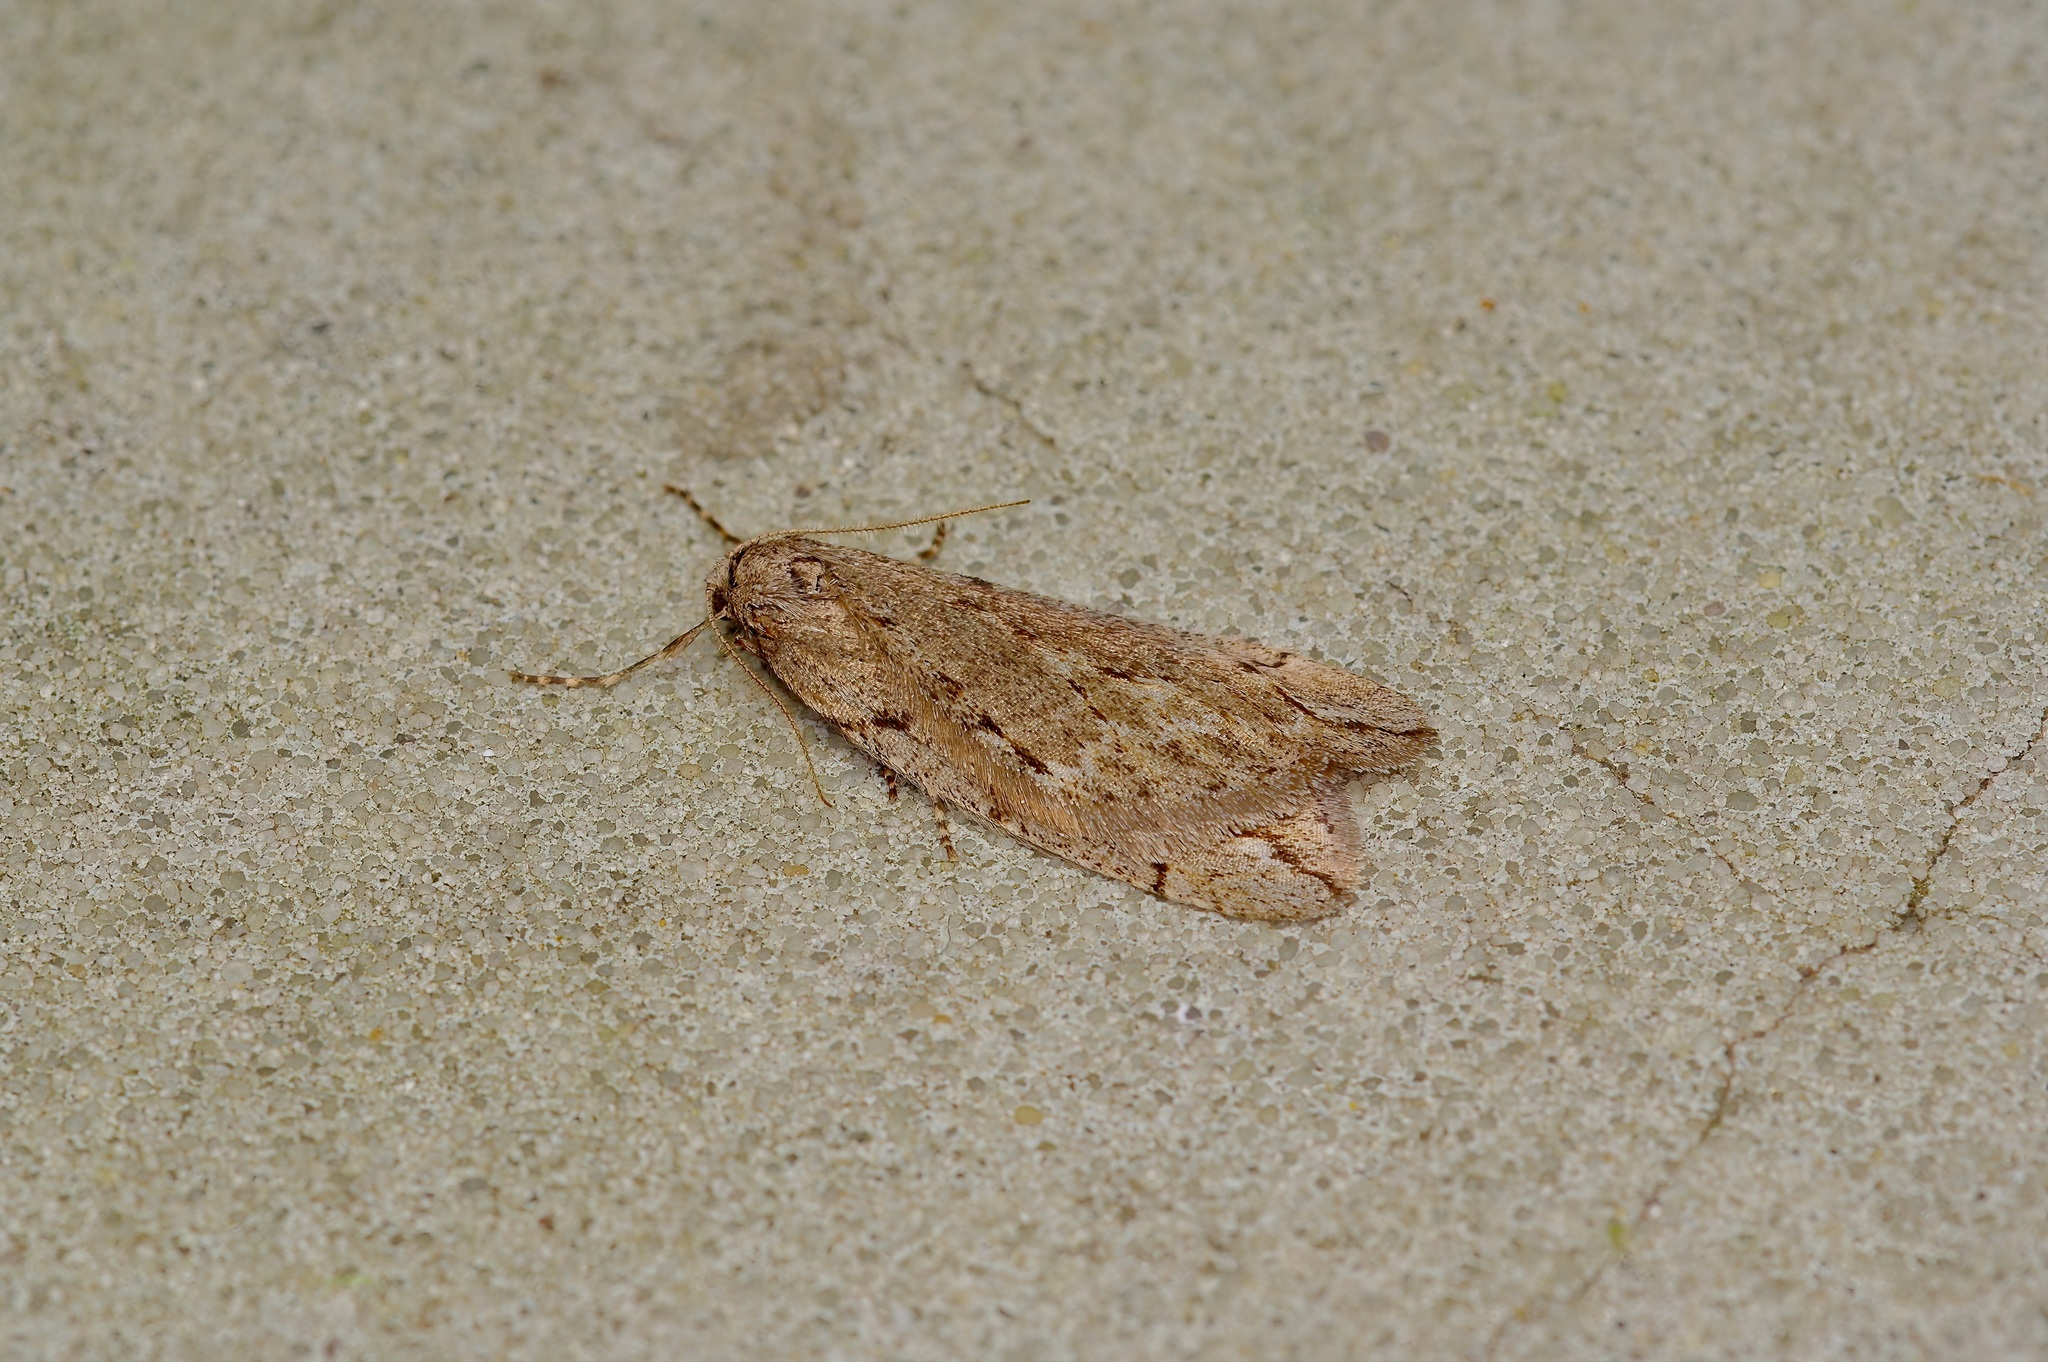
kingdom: Animalia
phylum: Arthropoda
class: Insecta
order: Lepidoptera
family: Geometridae
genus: Paleacrita
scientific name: Paleacrita vernata
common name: Spring cankerworm
